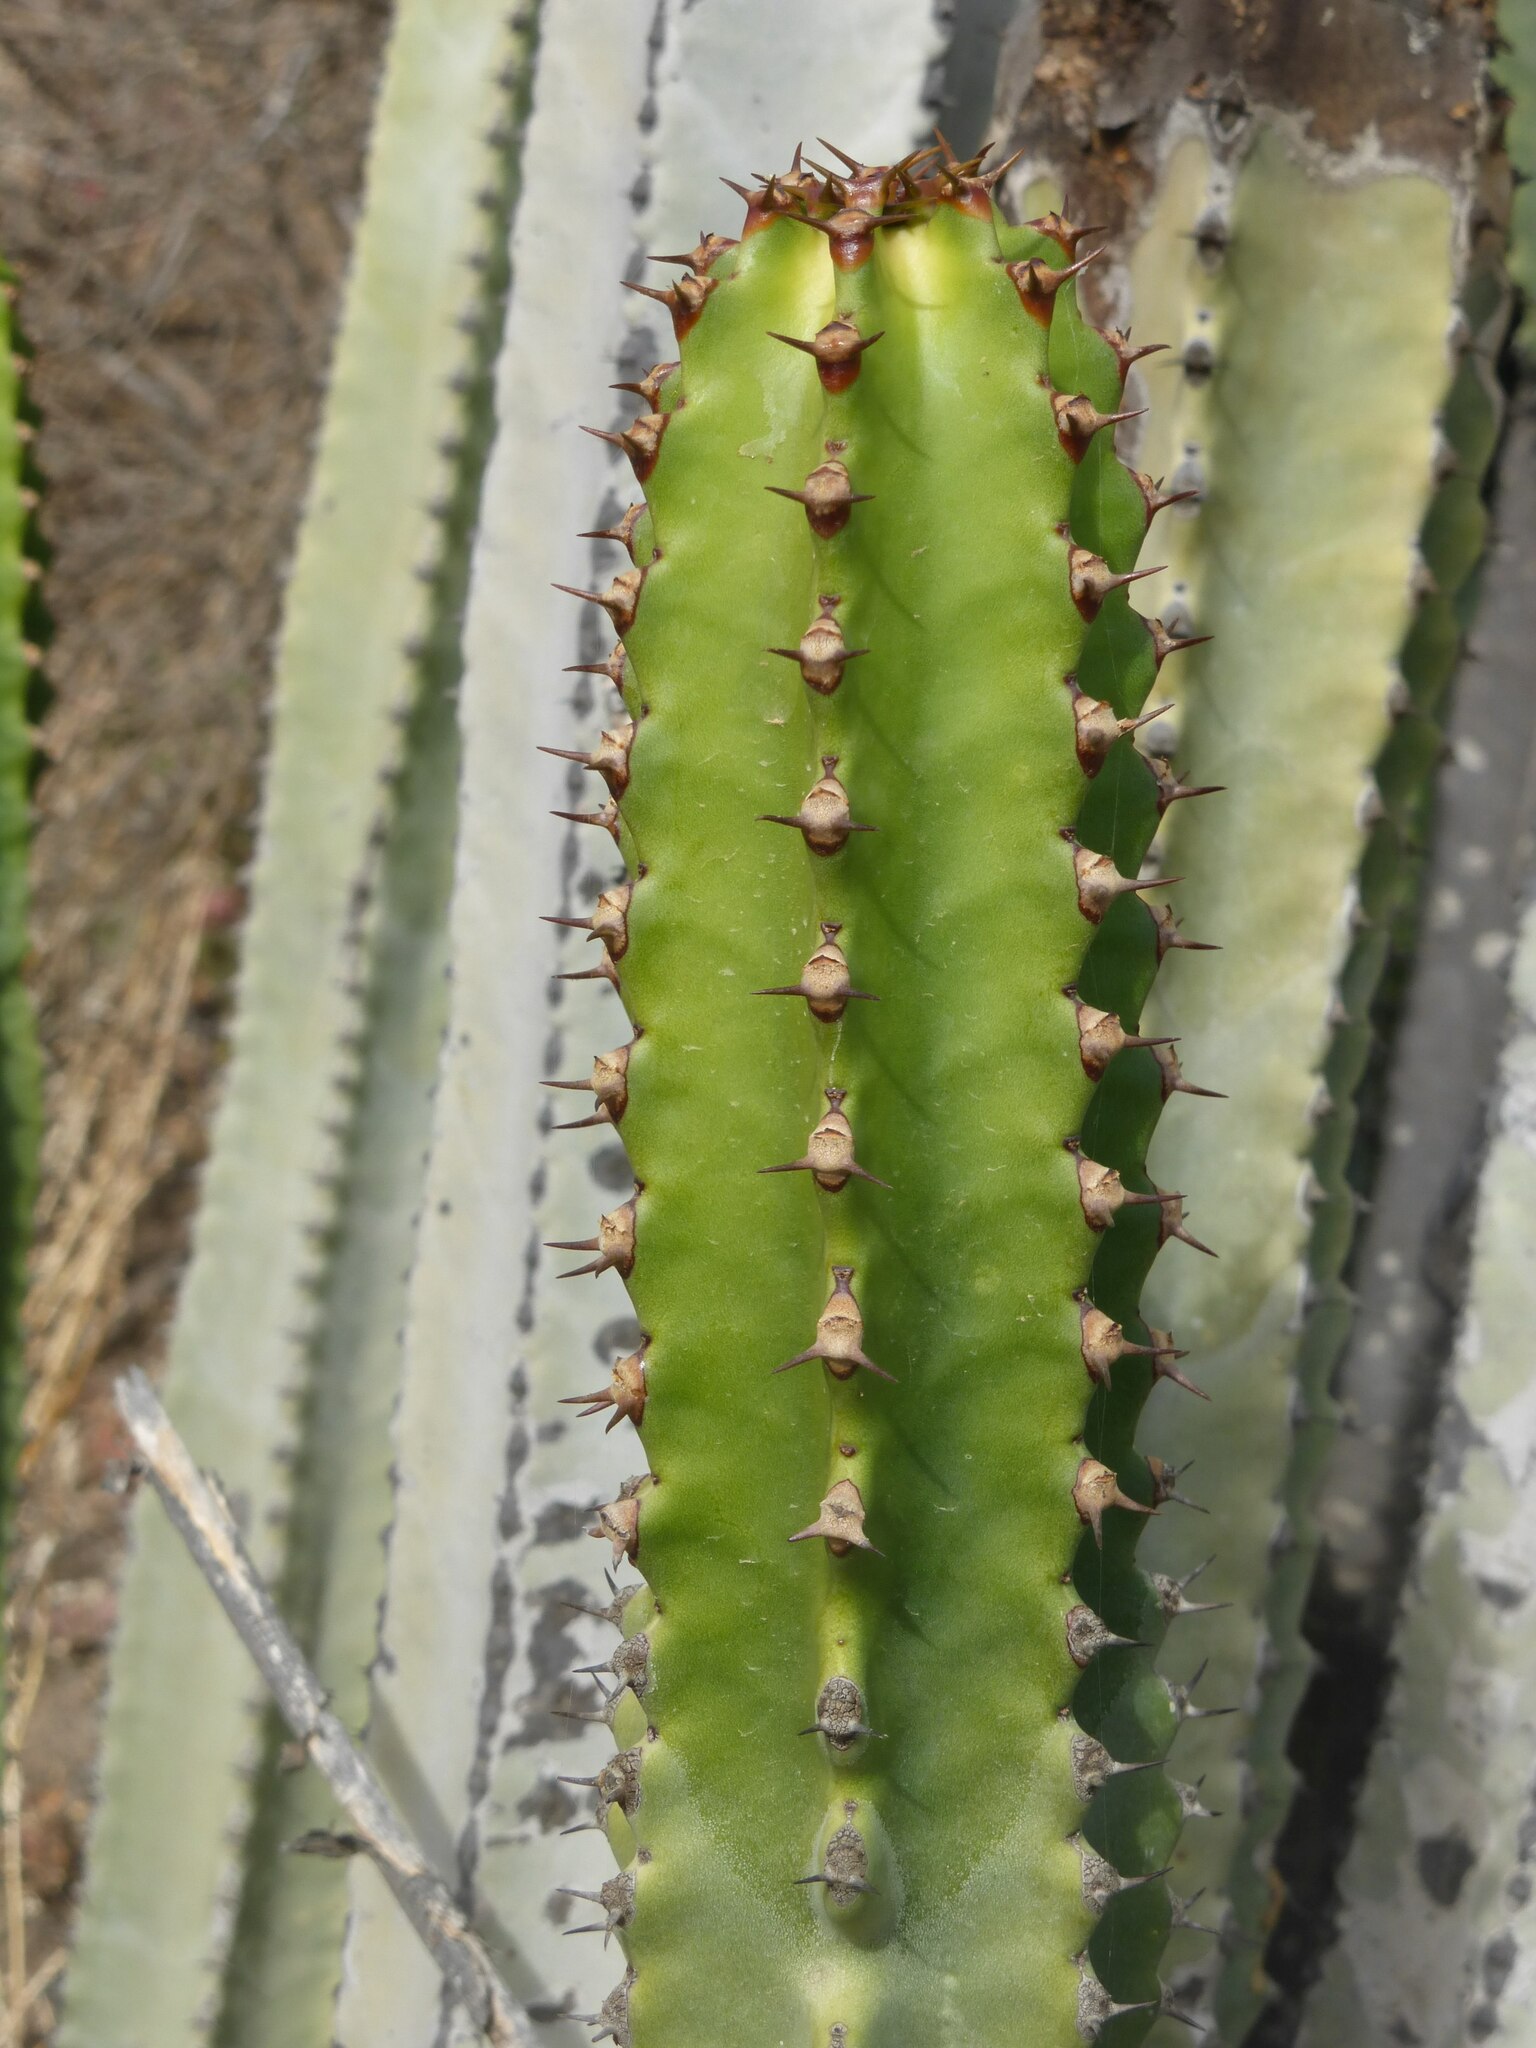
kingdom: Plantae
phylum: Tracheophyta
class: Magnoliopsida
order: Malpighiales
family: Euphorbiaceae
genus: Euphorbia
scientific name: Euphorbia canariensis
